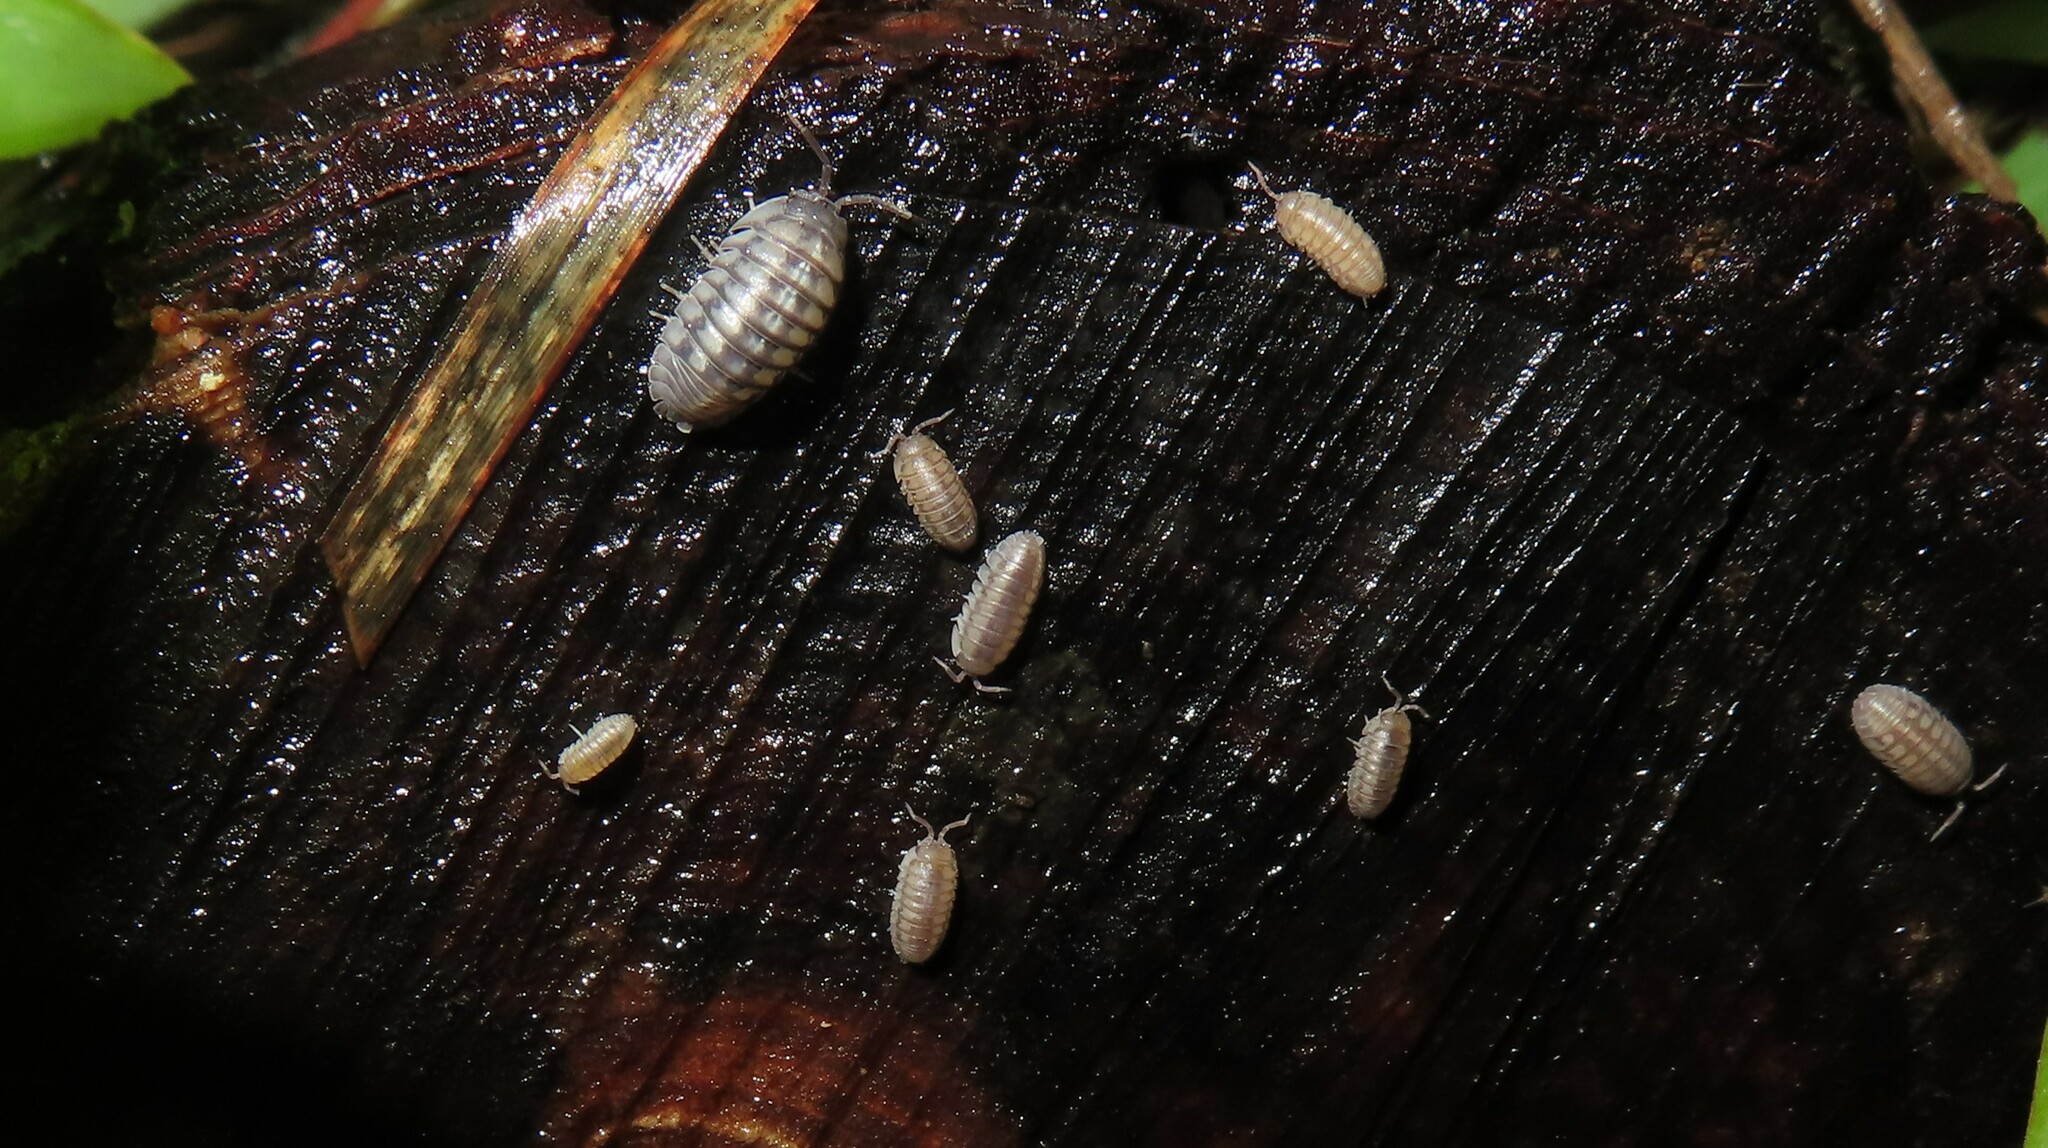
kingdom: Animalia
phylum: Arthropoda
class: Malacostraca
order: Isopoda
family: Armadillidiidae
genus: Armadillidium
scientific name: Armadillidium nasatum
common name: Isopod
